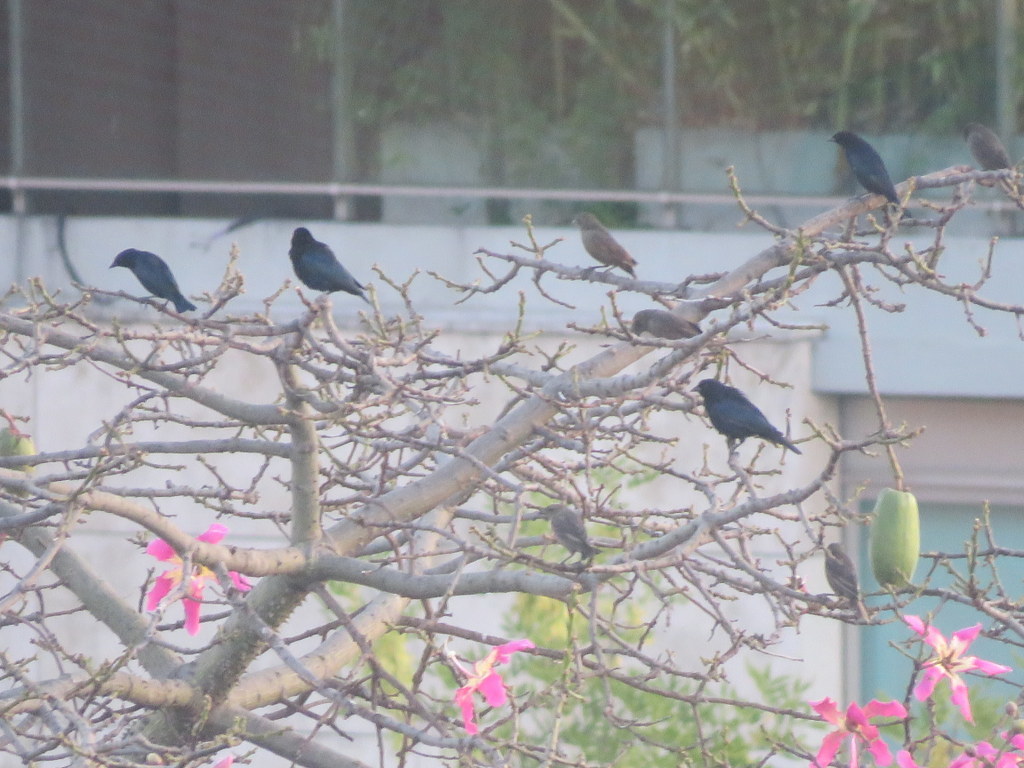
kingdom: Animalia
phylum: Chordata
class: Aves
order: Passeriformes
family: Icteridae
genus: Molothrus
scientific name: Molothrus bonariensis
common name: Shiny cowbird
